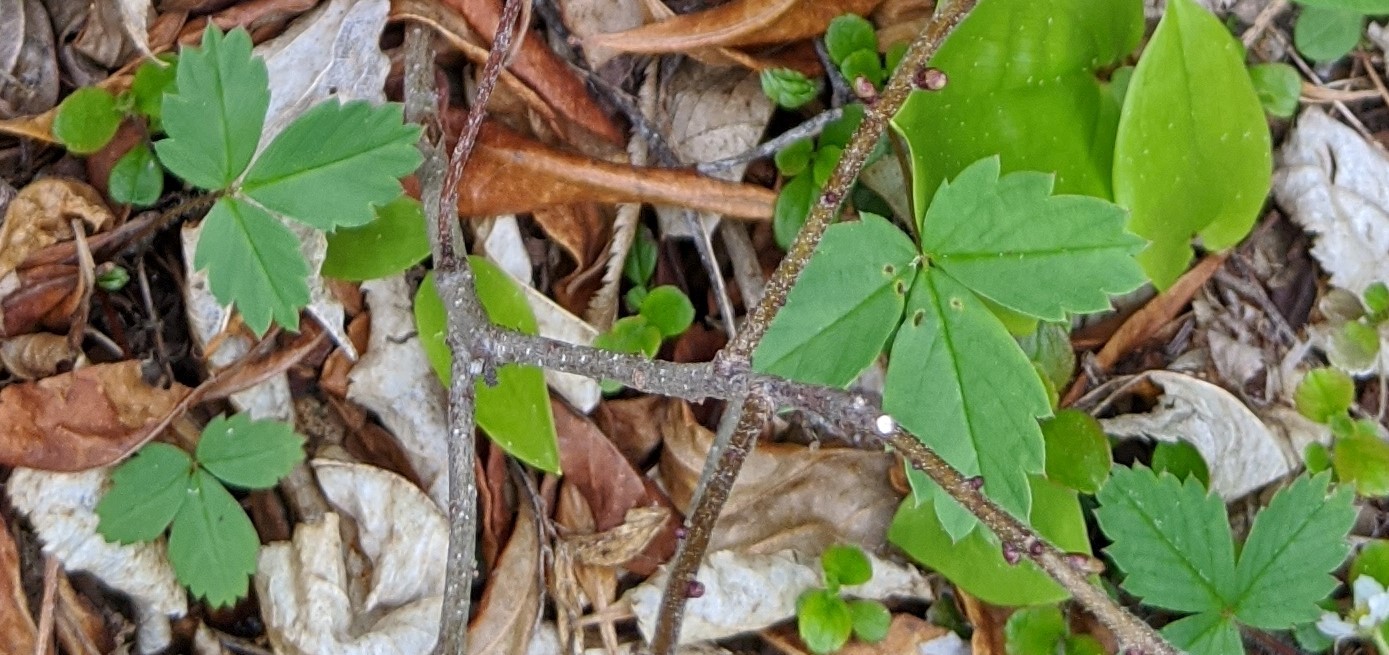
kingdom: Plantae
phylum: Tracheophyta
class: Magnoliopsida
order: Rosales
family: Rosaceae
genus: Fragaria
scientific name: Fragaria virginiana
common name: Thickleaved wild strawberry
